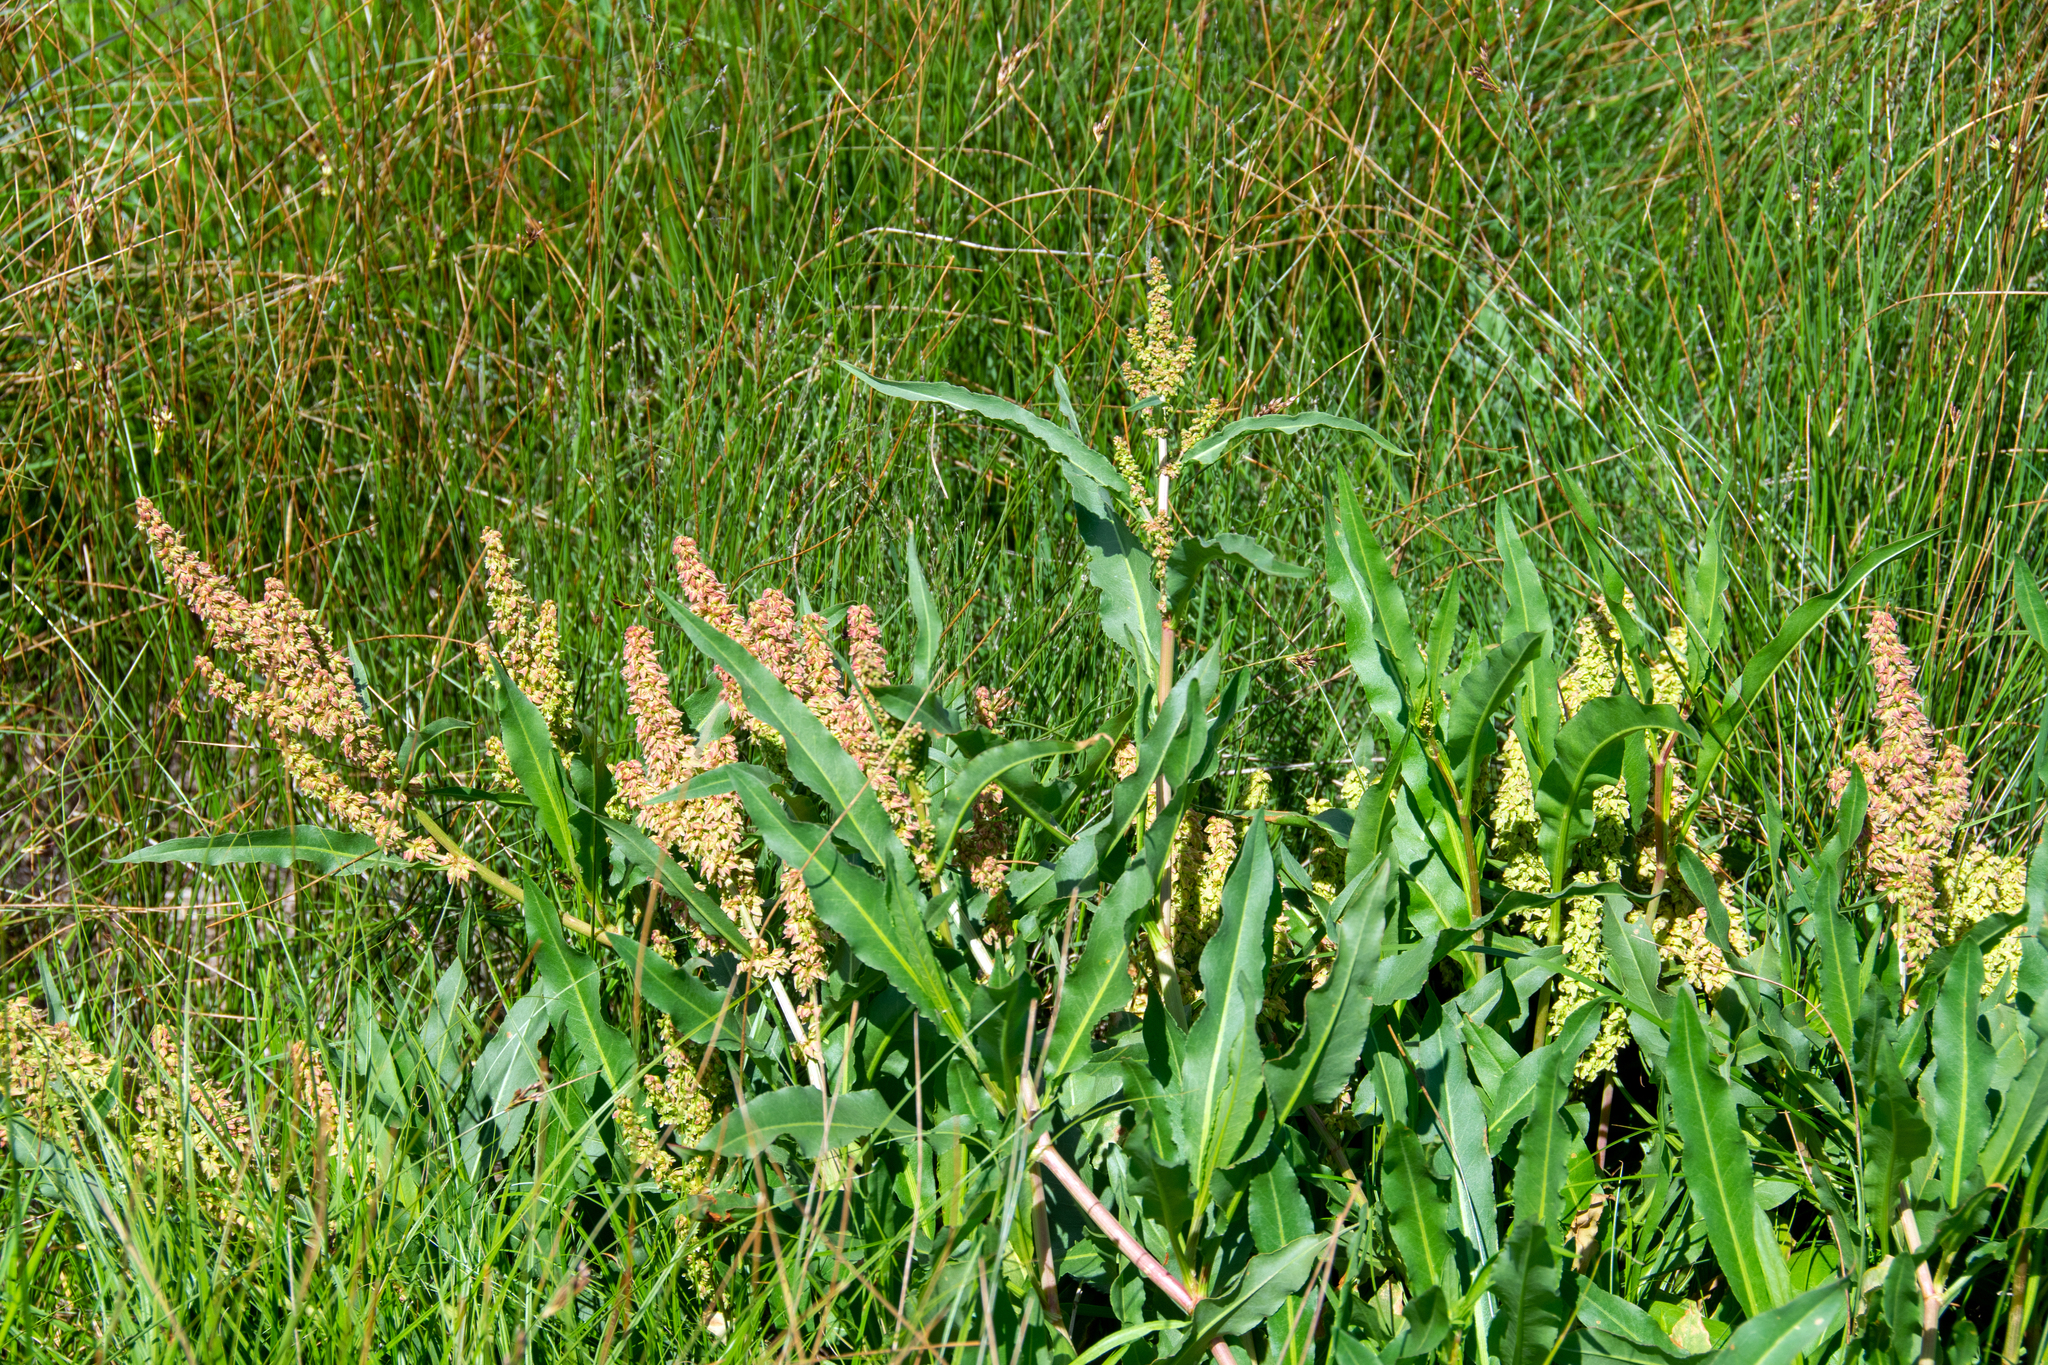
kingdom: Plantae
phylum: Tracheophyta
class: Magnoliopsida
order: Caryophyllales
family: Polygonaceae
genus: Rumex
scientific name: Rumex crispus
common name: Curled dock
